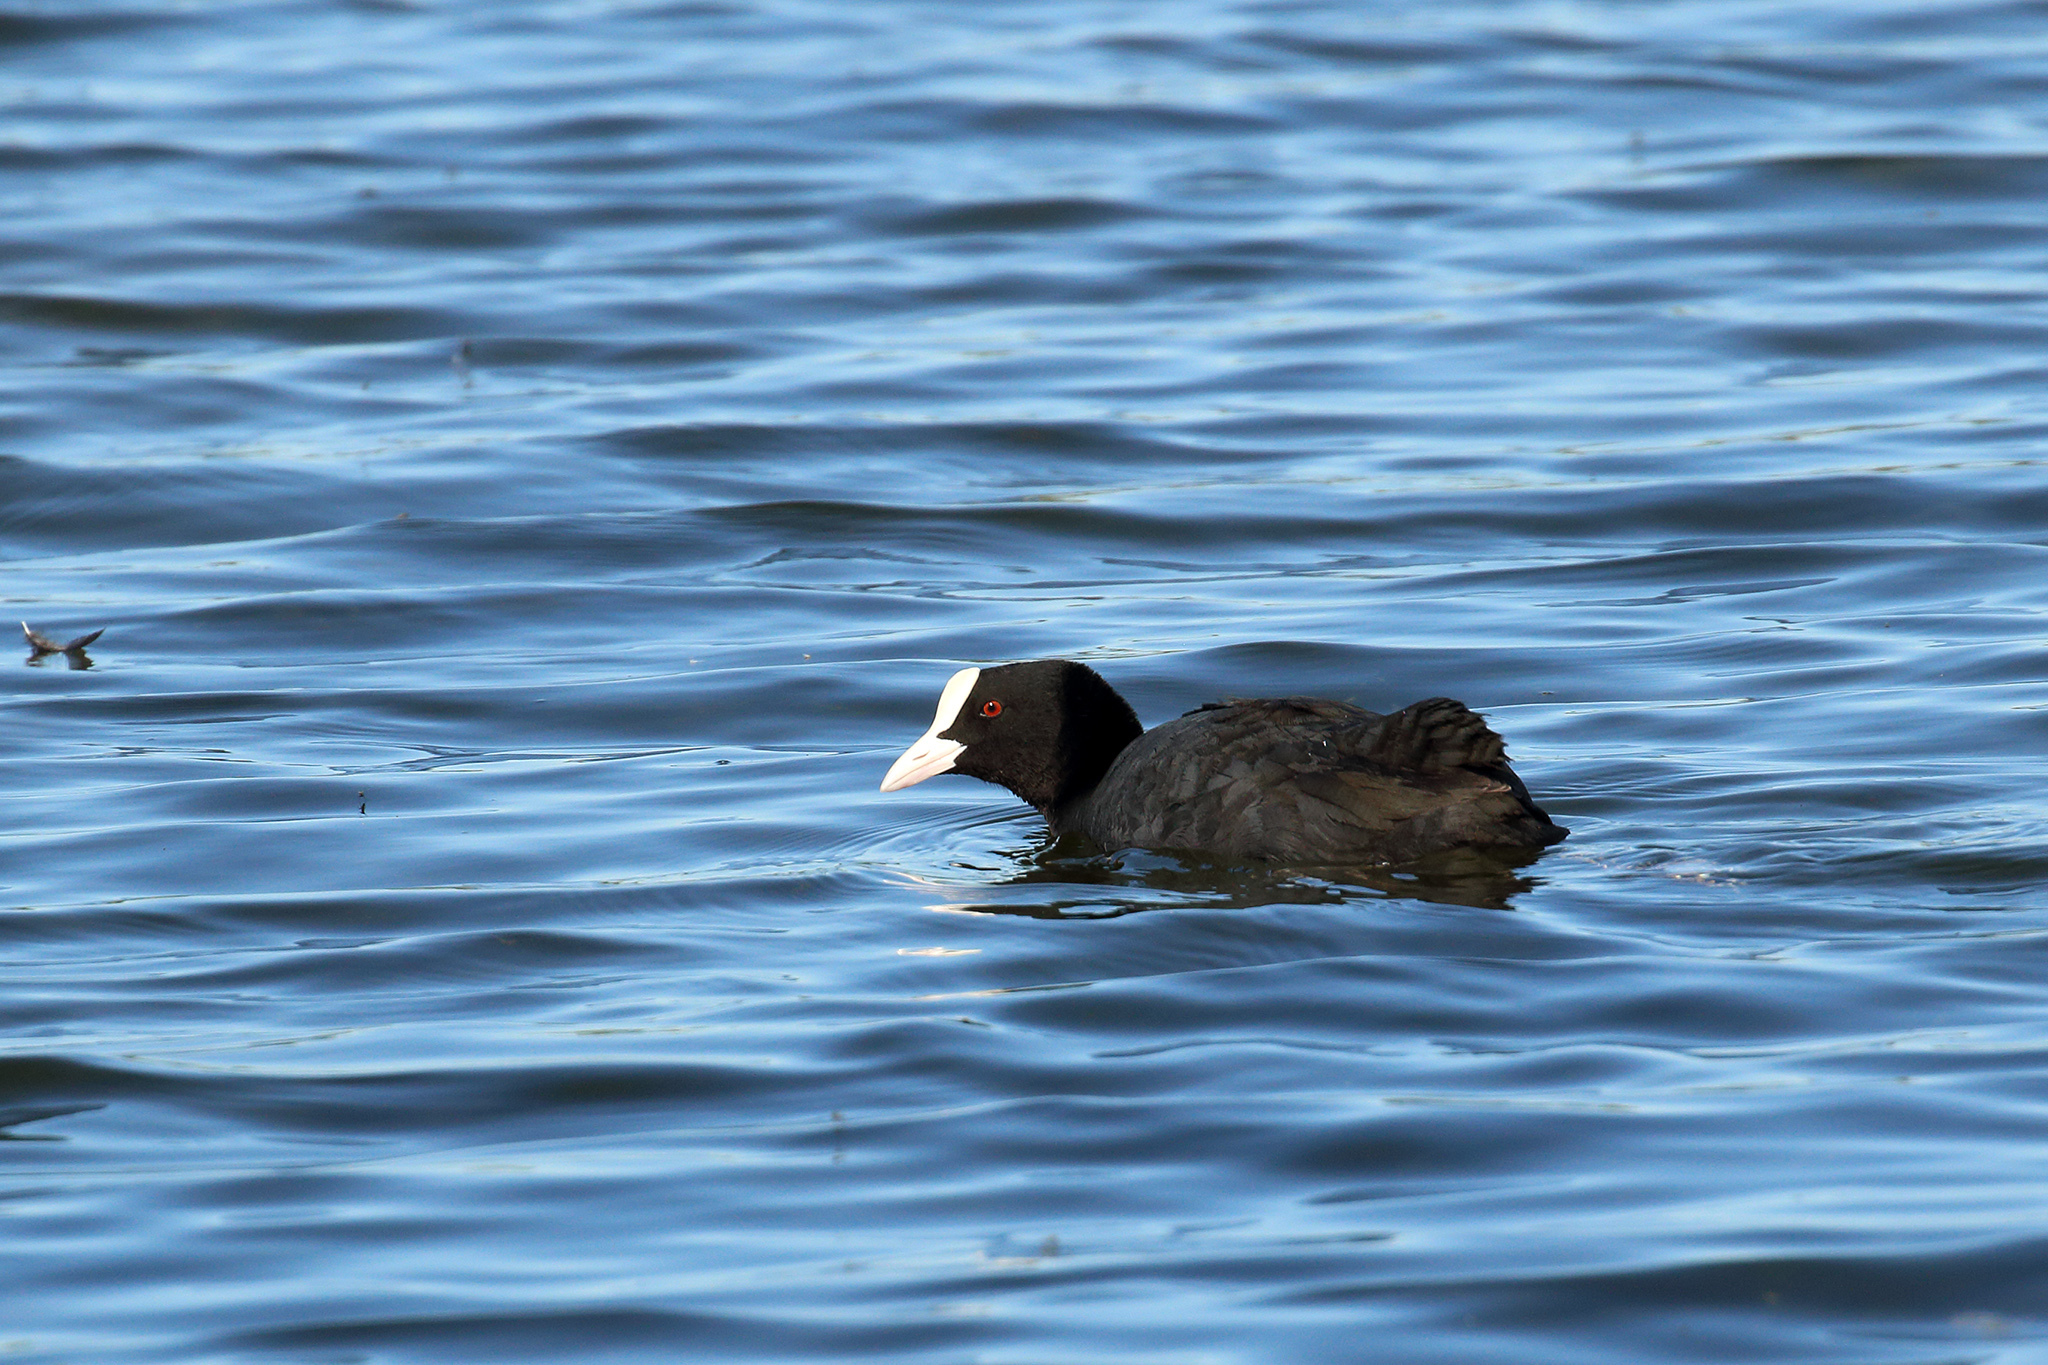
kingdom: Animalia
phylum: Chordata
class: Aves
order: Gruiformes
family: Rallidae
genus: Fulica
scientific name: Fulica atra
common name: Eurasian coot
